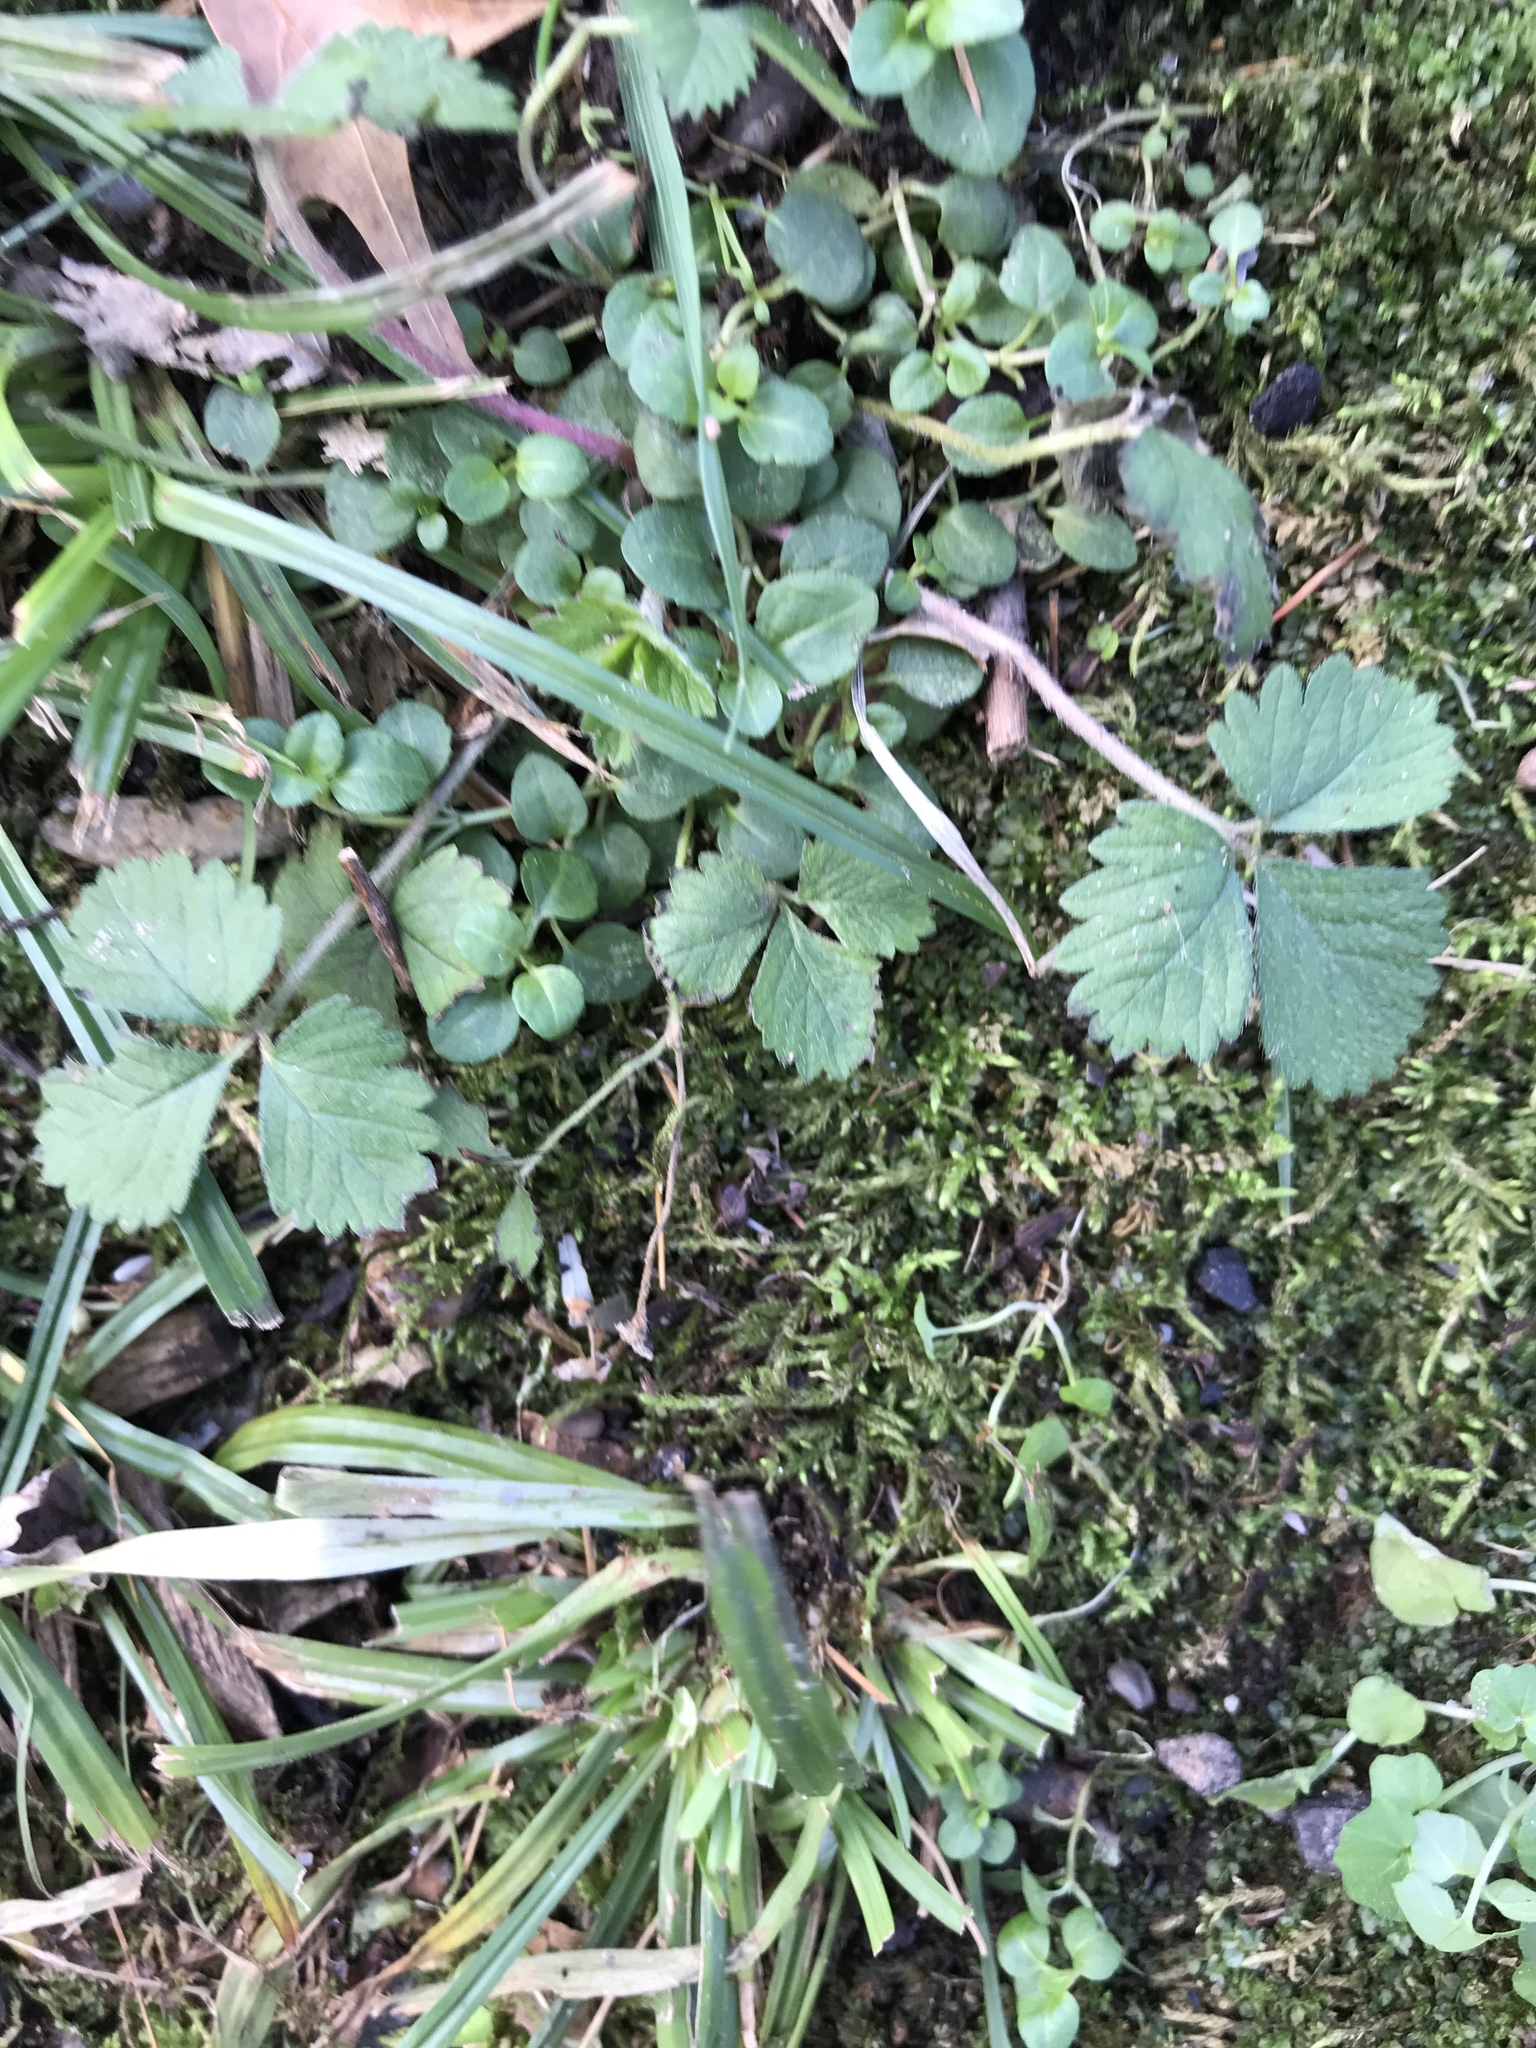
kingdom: Plantae
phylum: Tracheophyta
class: Magnoliopsida
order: Rosales
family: Rosaceae
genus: Potentilla
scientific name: Potentilla indica
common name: Yellow-flowered strawberry
